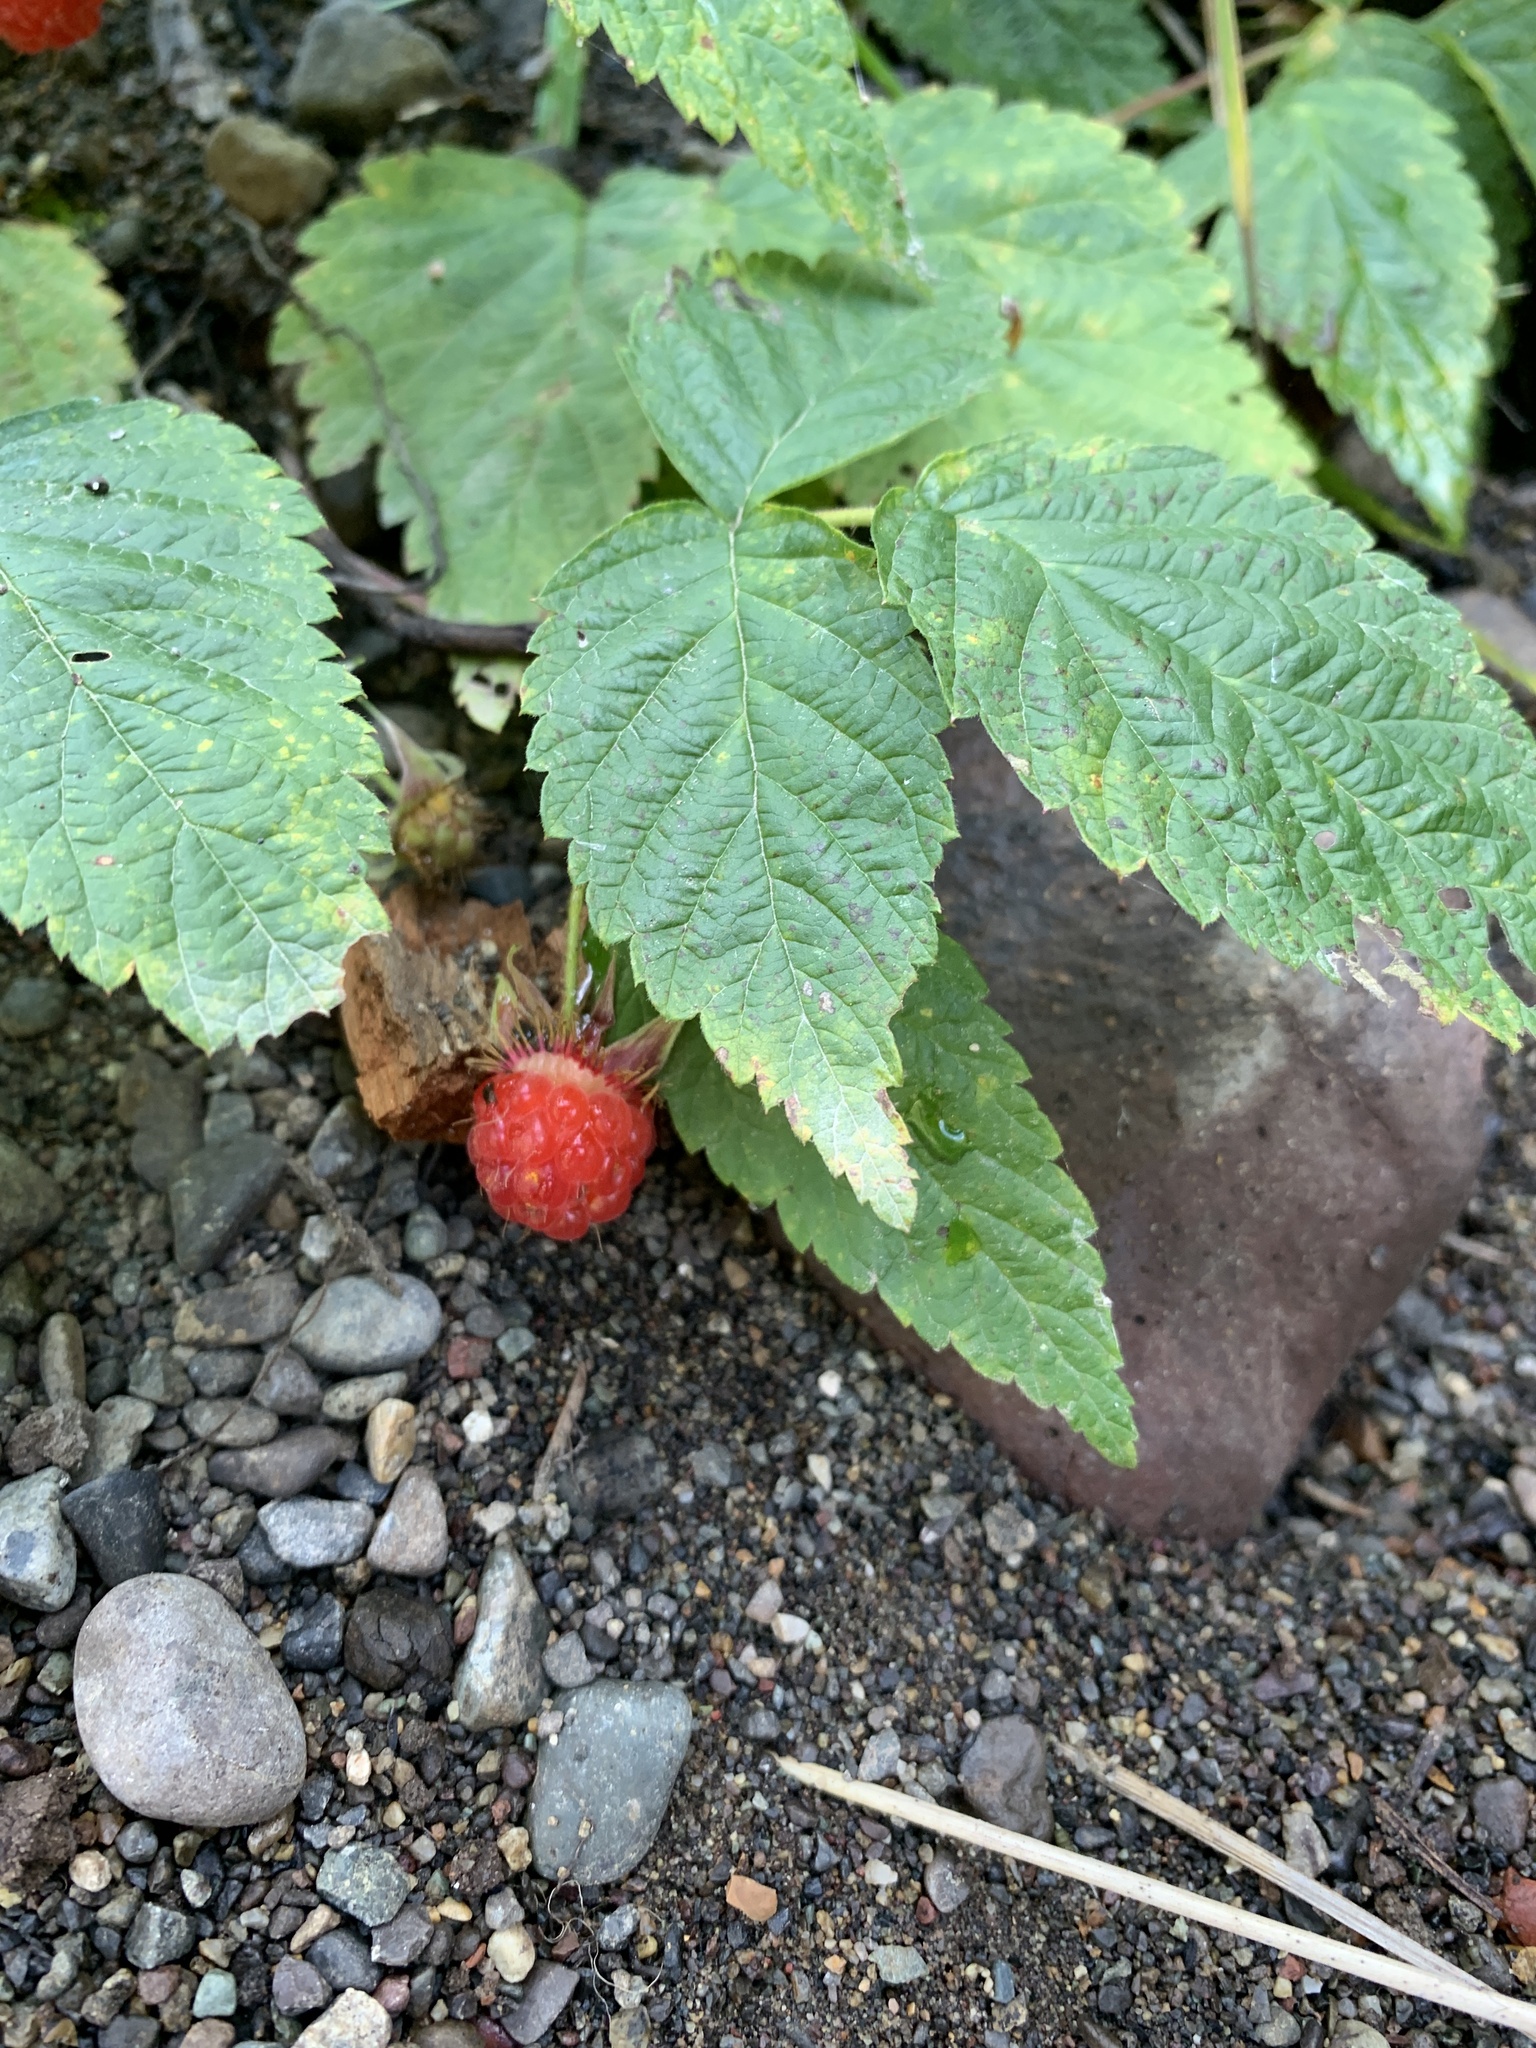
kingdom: Plantae
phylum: Tracheophyta
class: Magnoliopsida
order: Rosales
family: Rosaceae
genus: Rubus
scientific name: Rubus idaeus
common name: Raspberry
